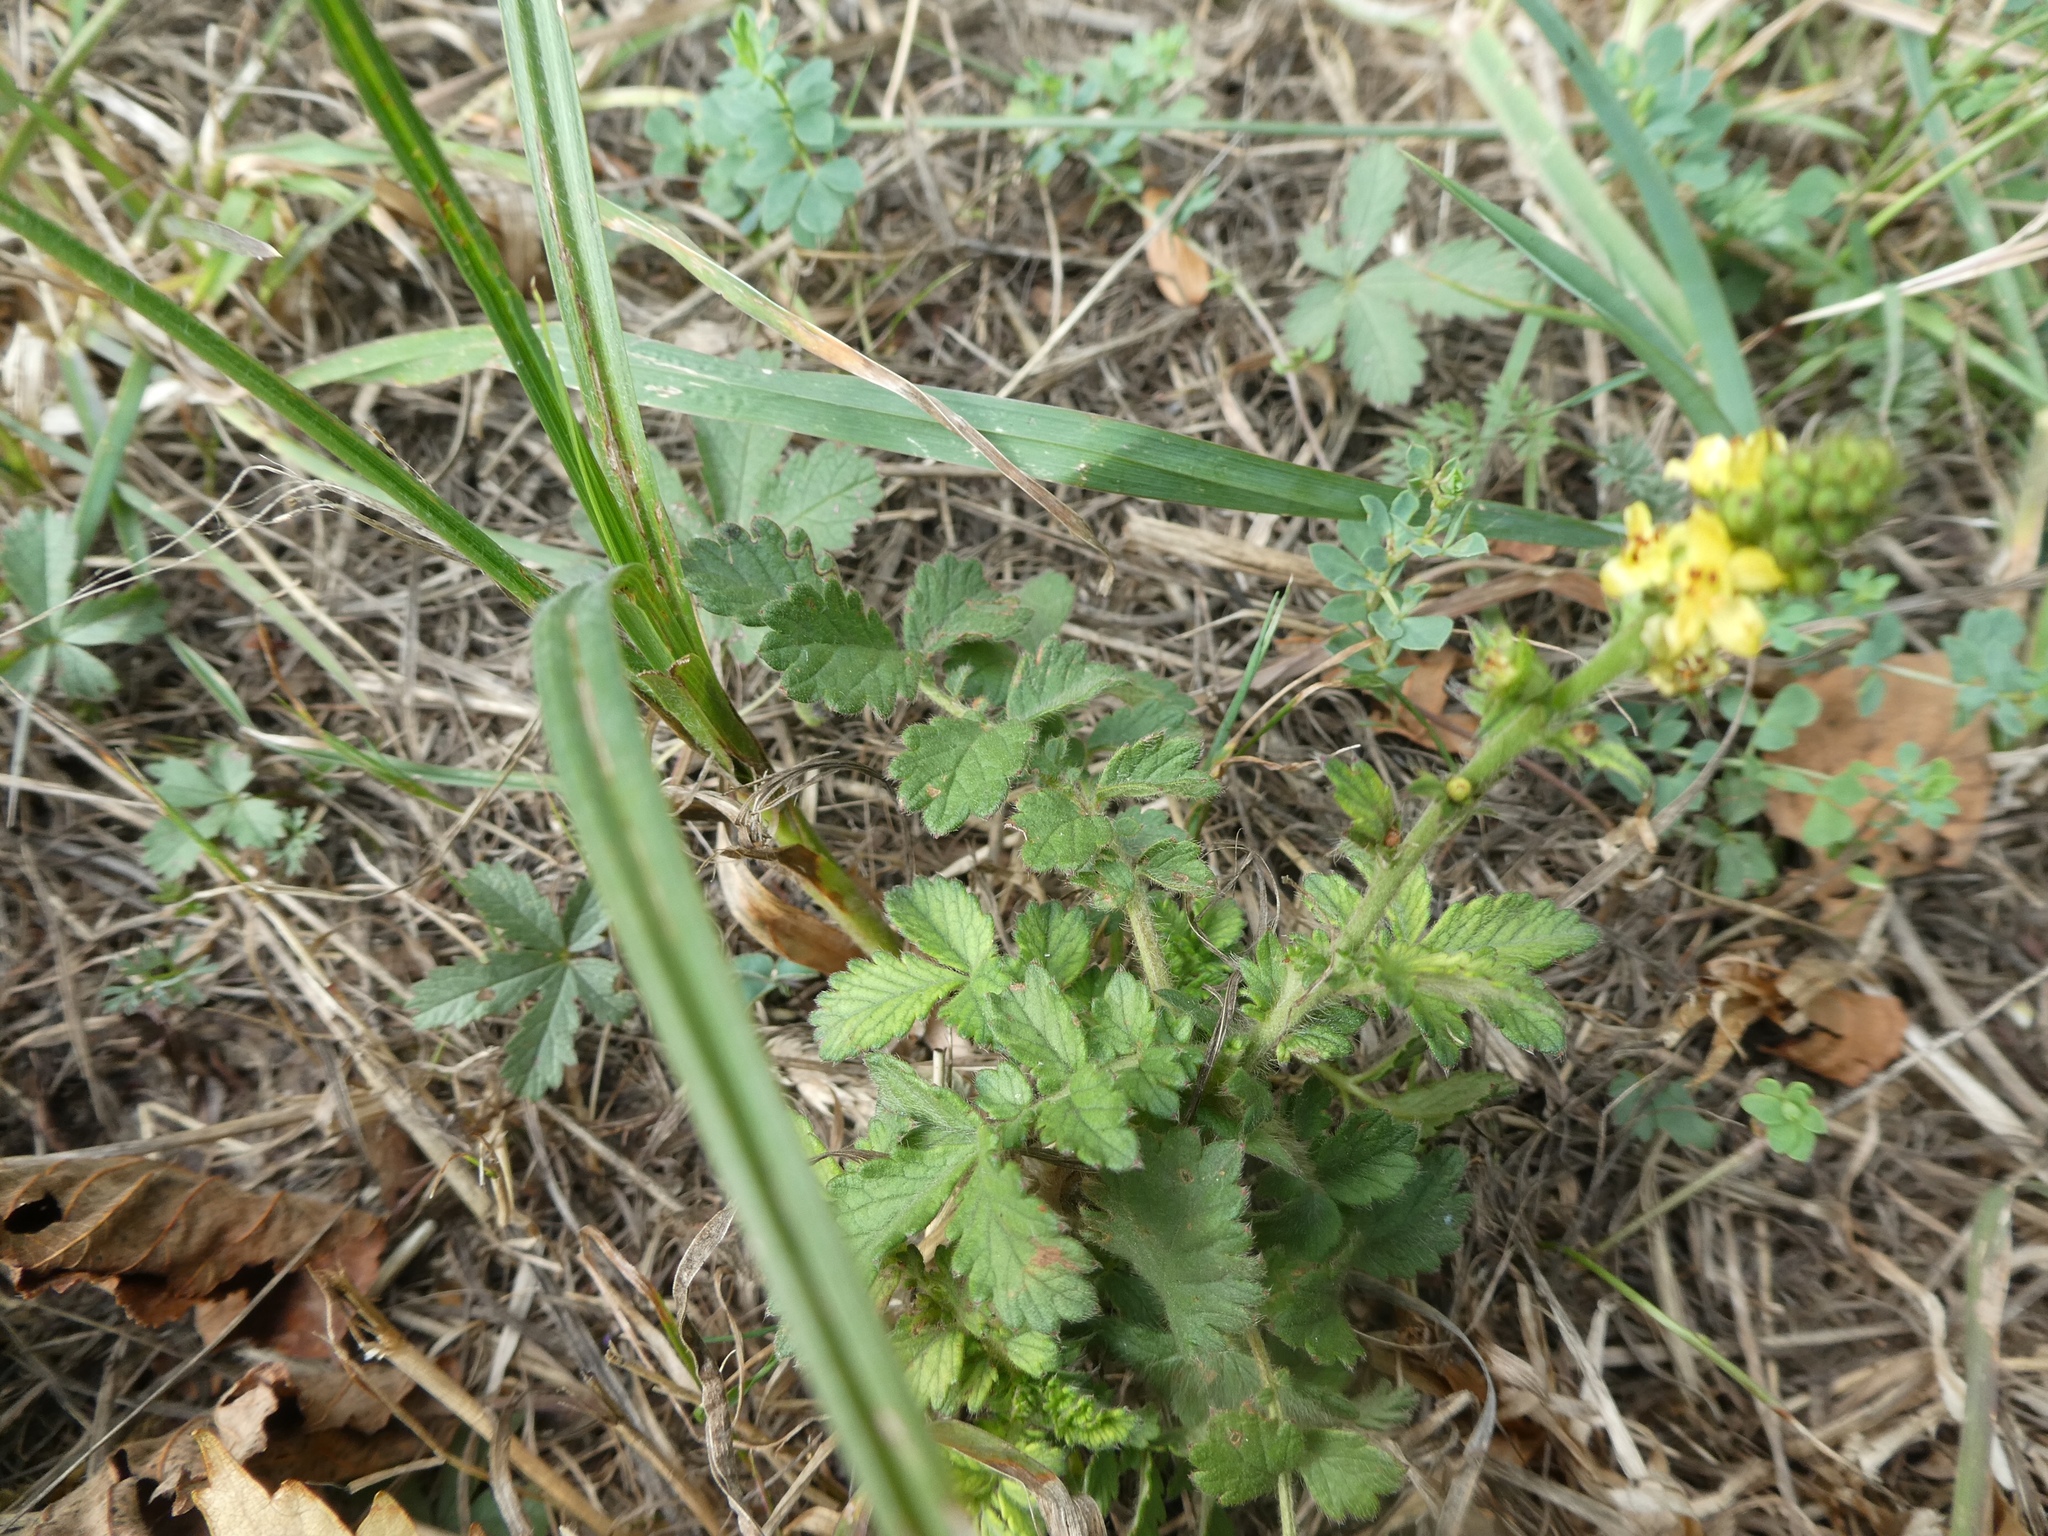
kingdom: Plantae
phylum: Tracheophyta
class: Magnoliopsida
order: Rosales
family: Rosaceae
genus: Agrimonia
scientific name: Agrimonia eupatoria
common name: Agrimony
